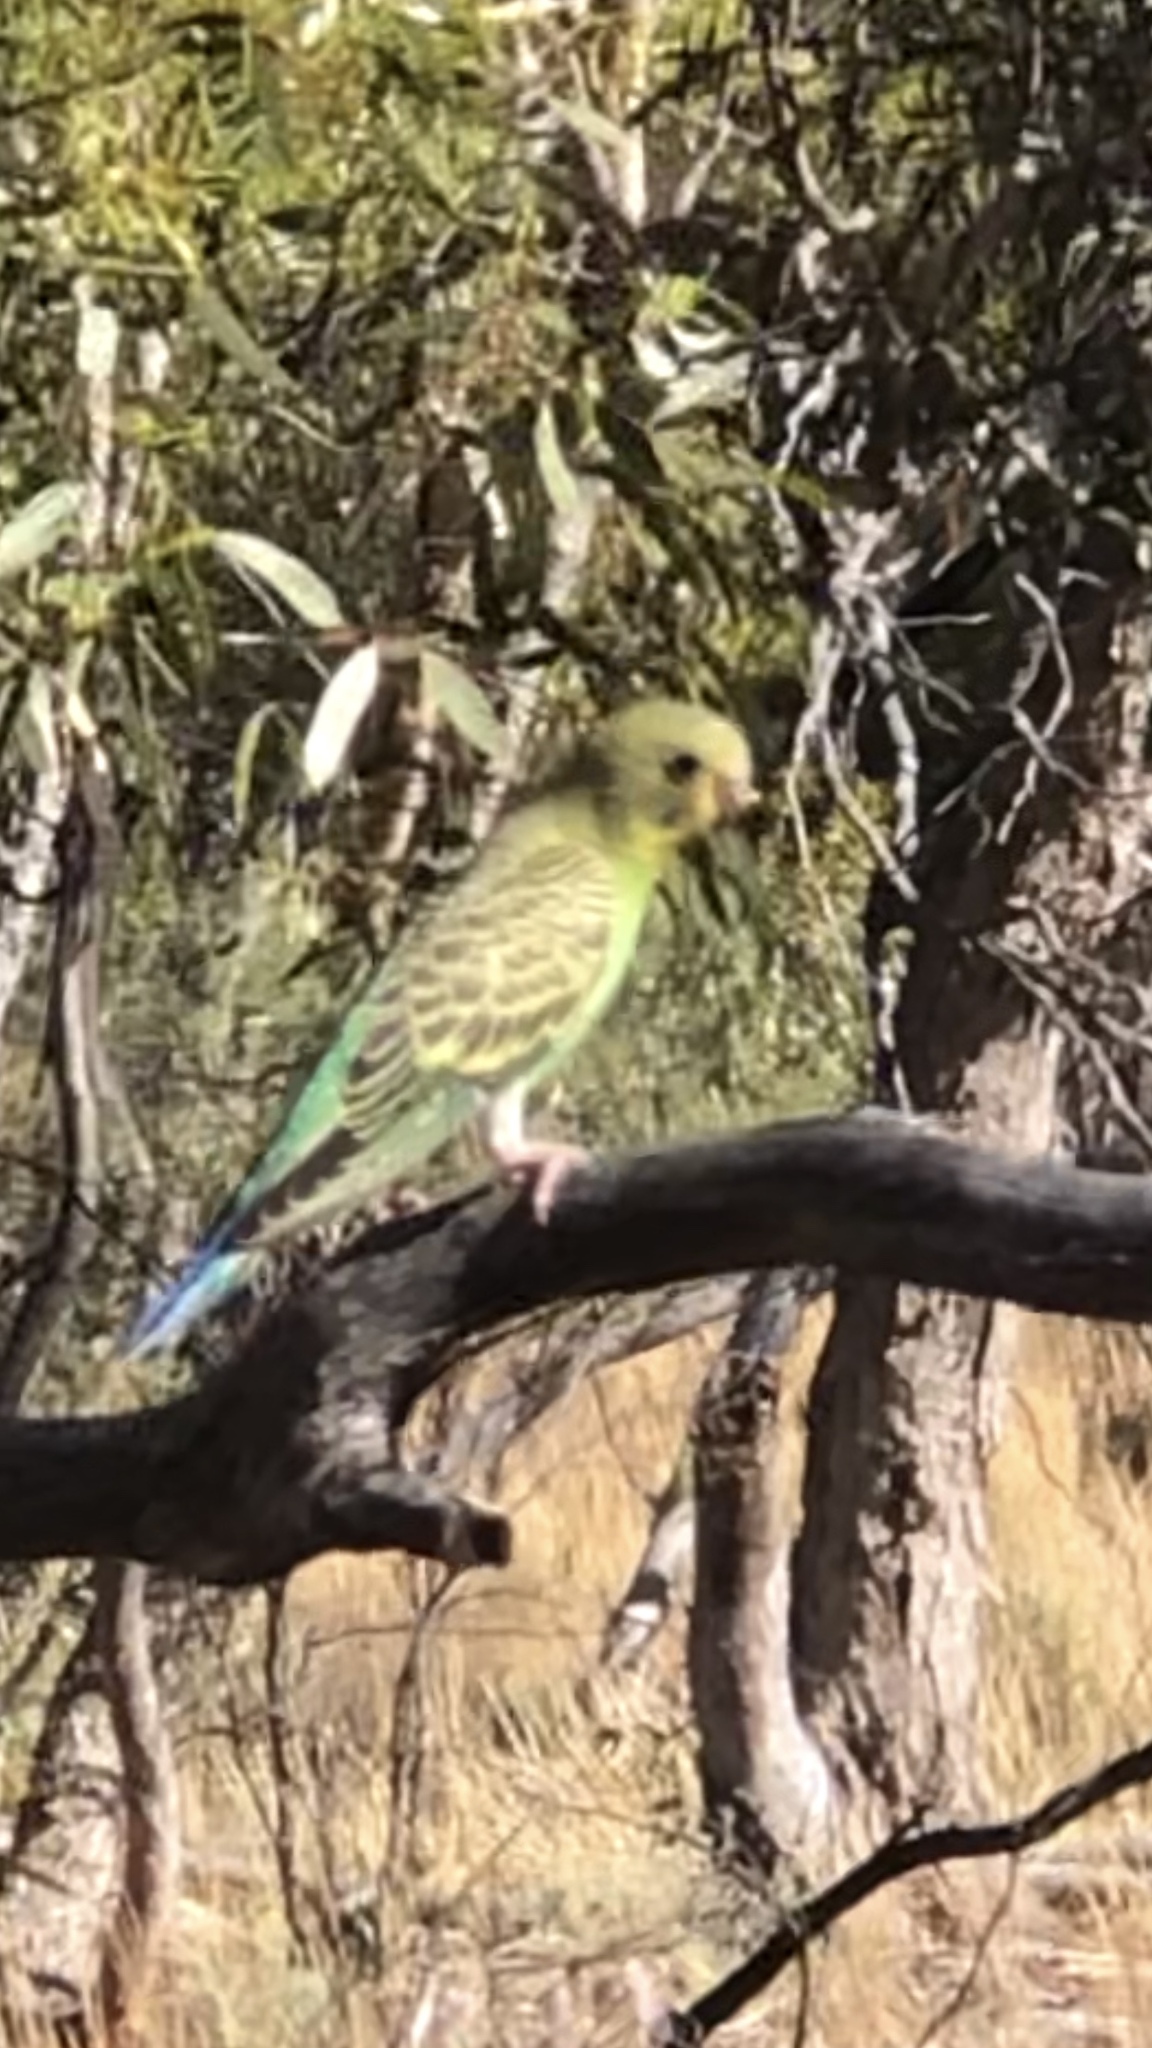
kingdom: Animalia
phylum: Chordata
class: Aves
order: Psittaciformes
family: Psittacidae
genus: Melopsittacus
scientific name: Melopsittacus undulatus
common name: Budgerigar
